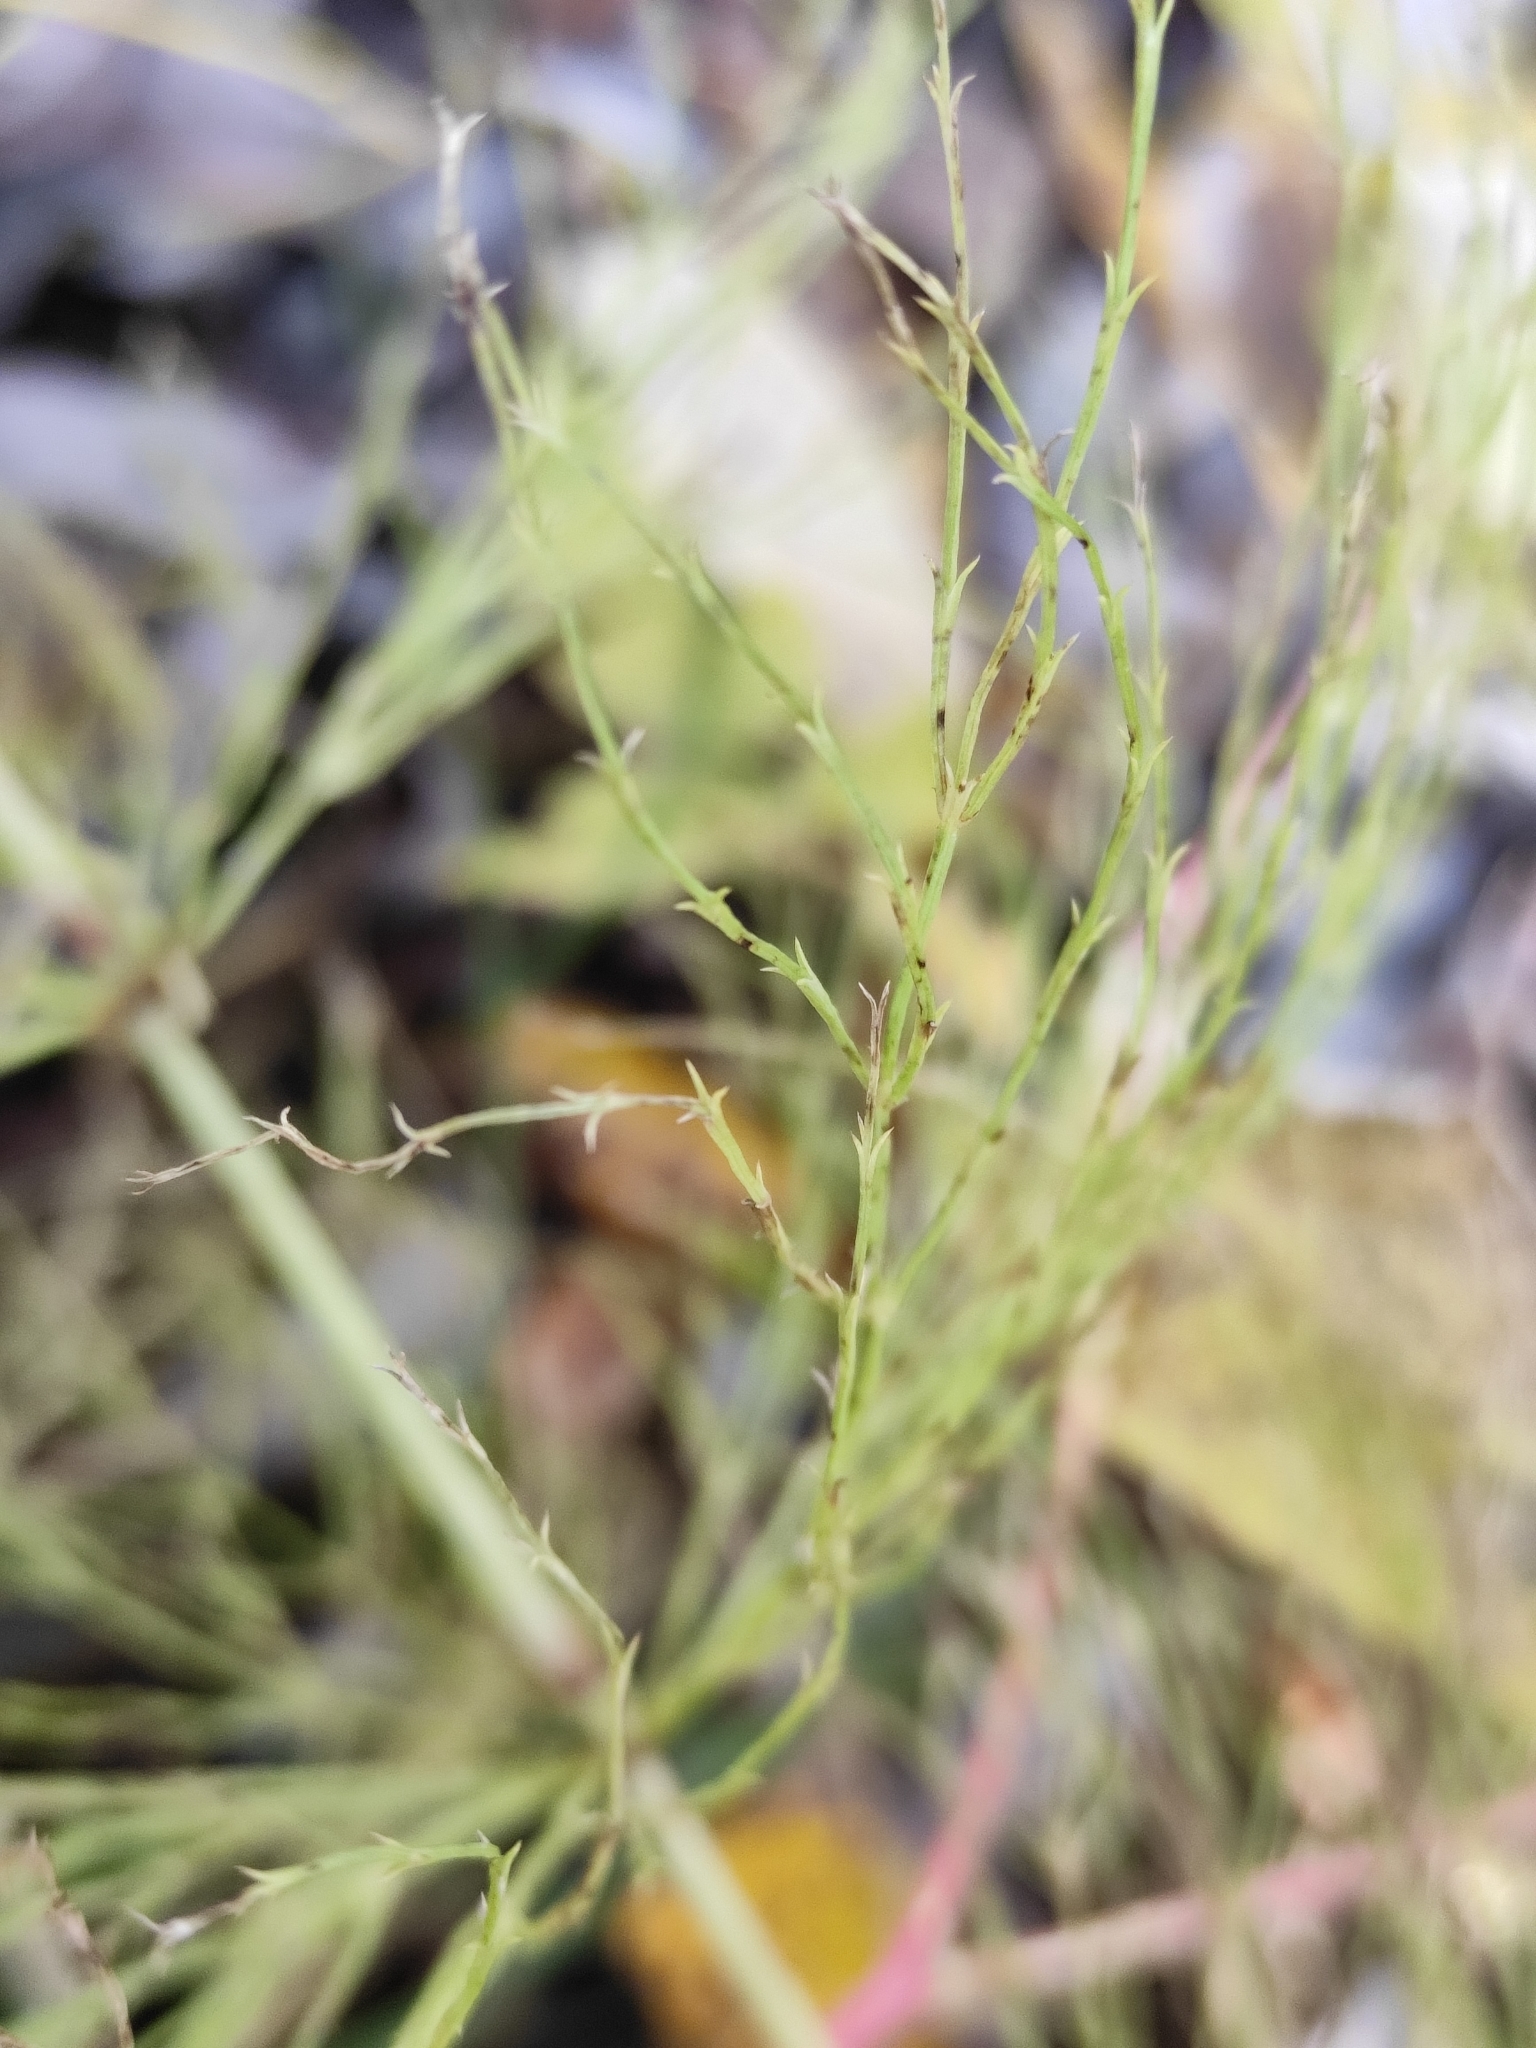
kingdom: Plantae
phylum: Tracheophyta
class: Polypodiopsida
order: Equisetales
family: Equisetaceae
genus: Equisetum
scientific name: Equisetum sylvaticum
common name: Wood horsetail
